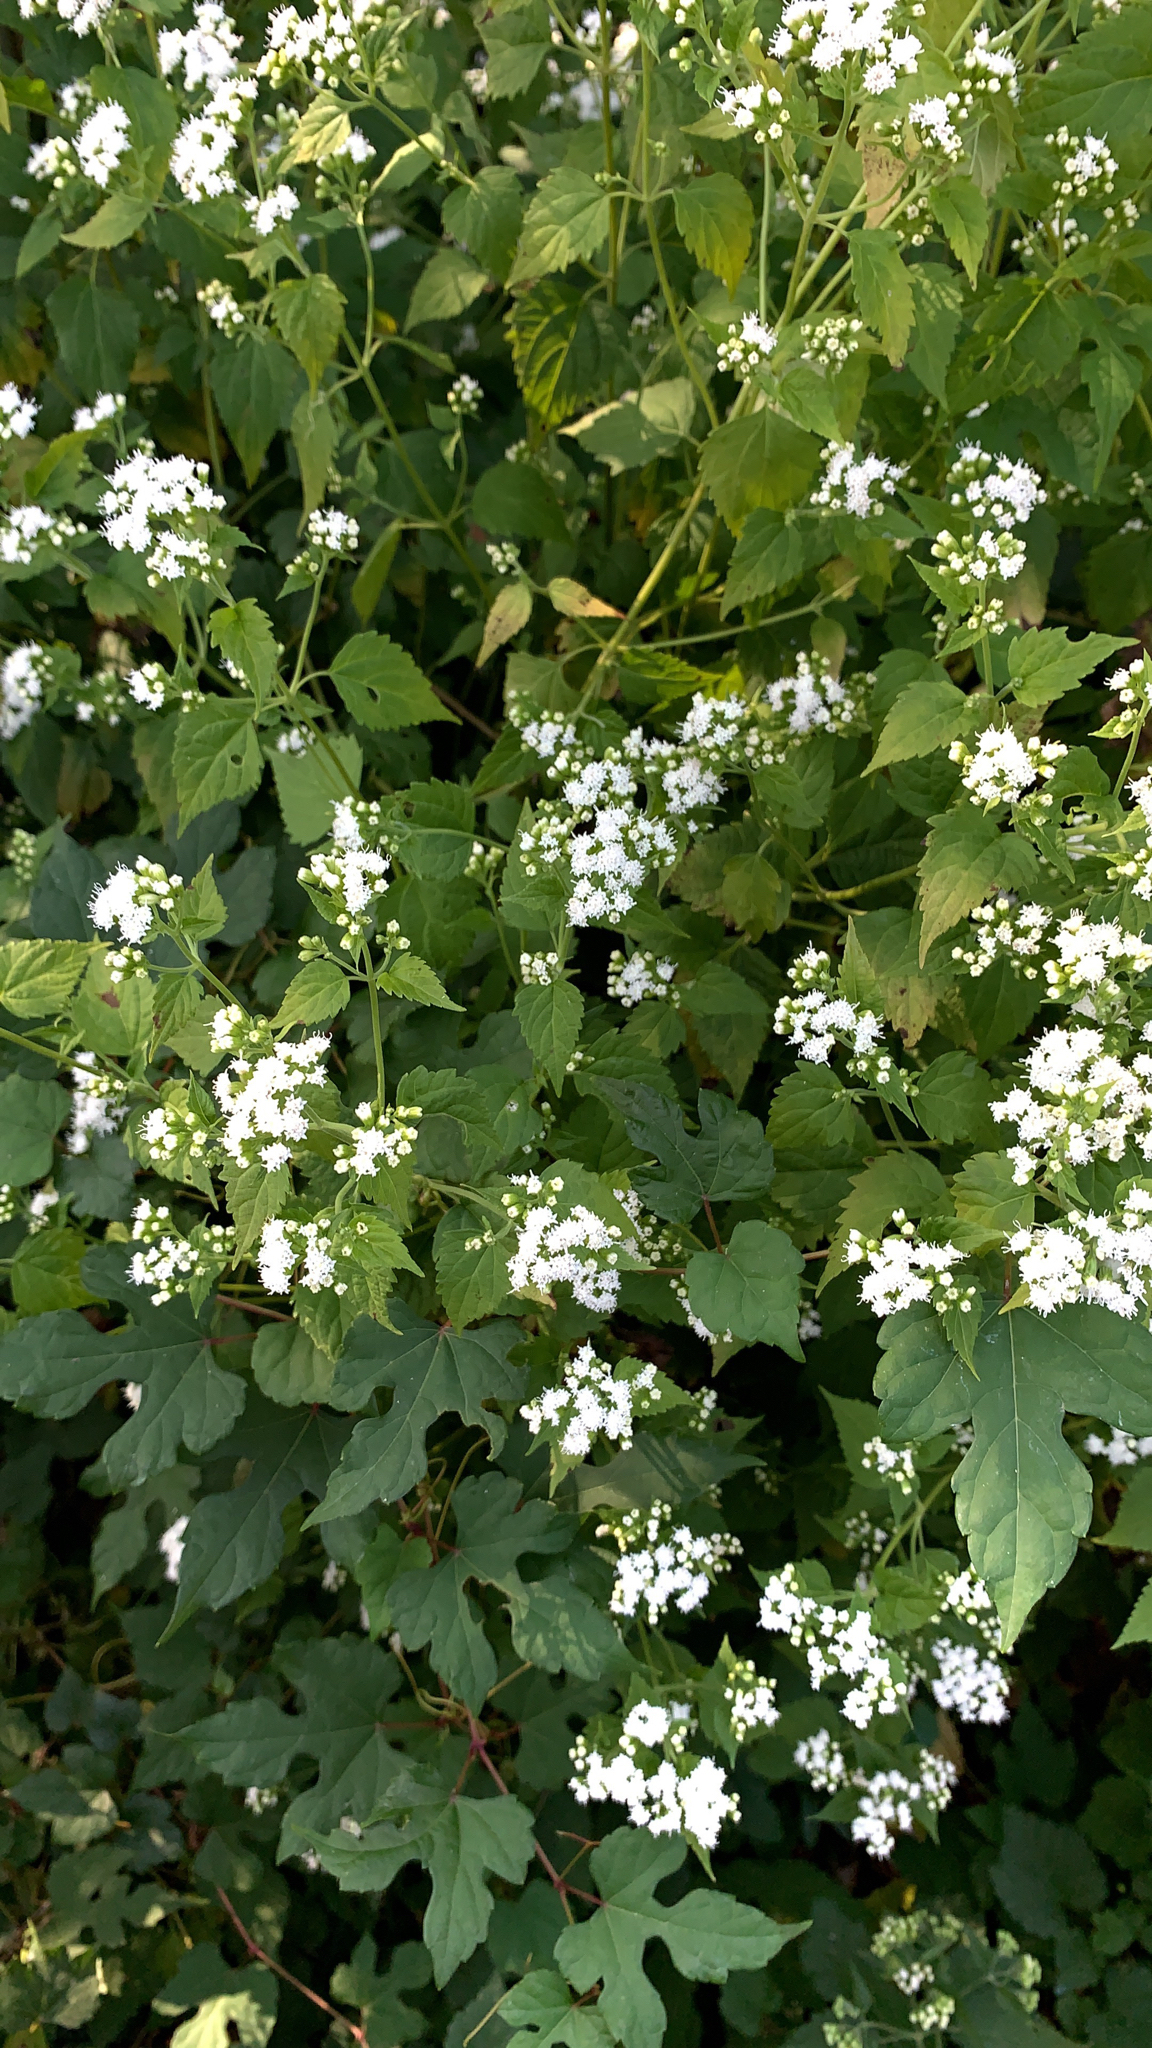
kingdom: Plantae
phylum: Tracheophyta
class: Magnoliopsida
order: Asterales
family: Asteraceae
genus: Ageratina
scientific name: Ageratina altissima
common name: White snakeroot
